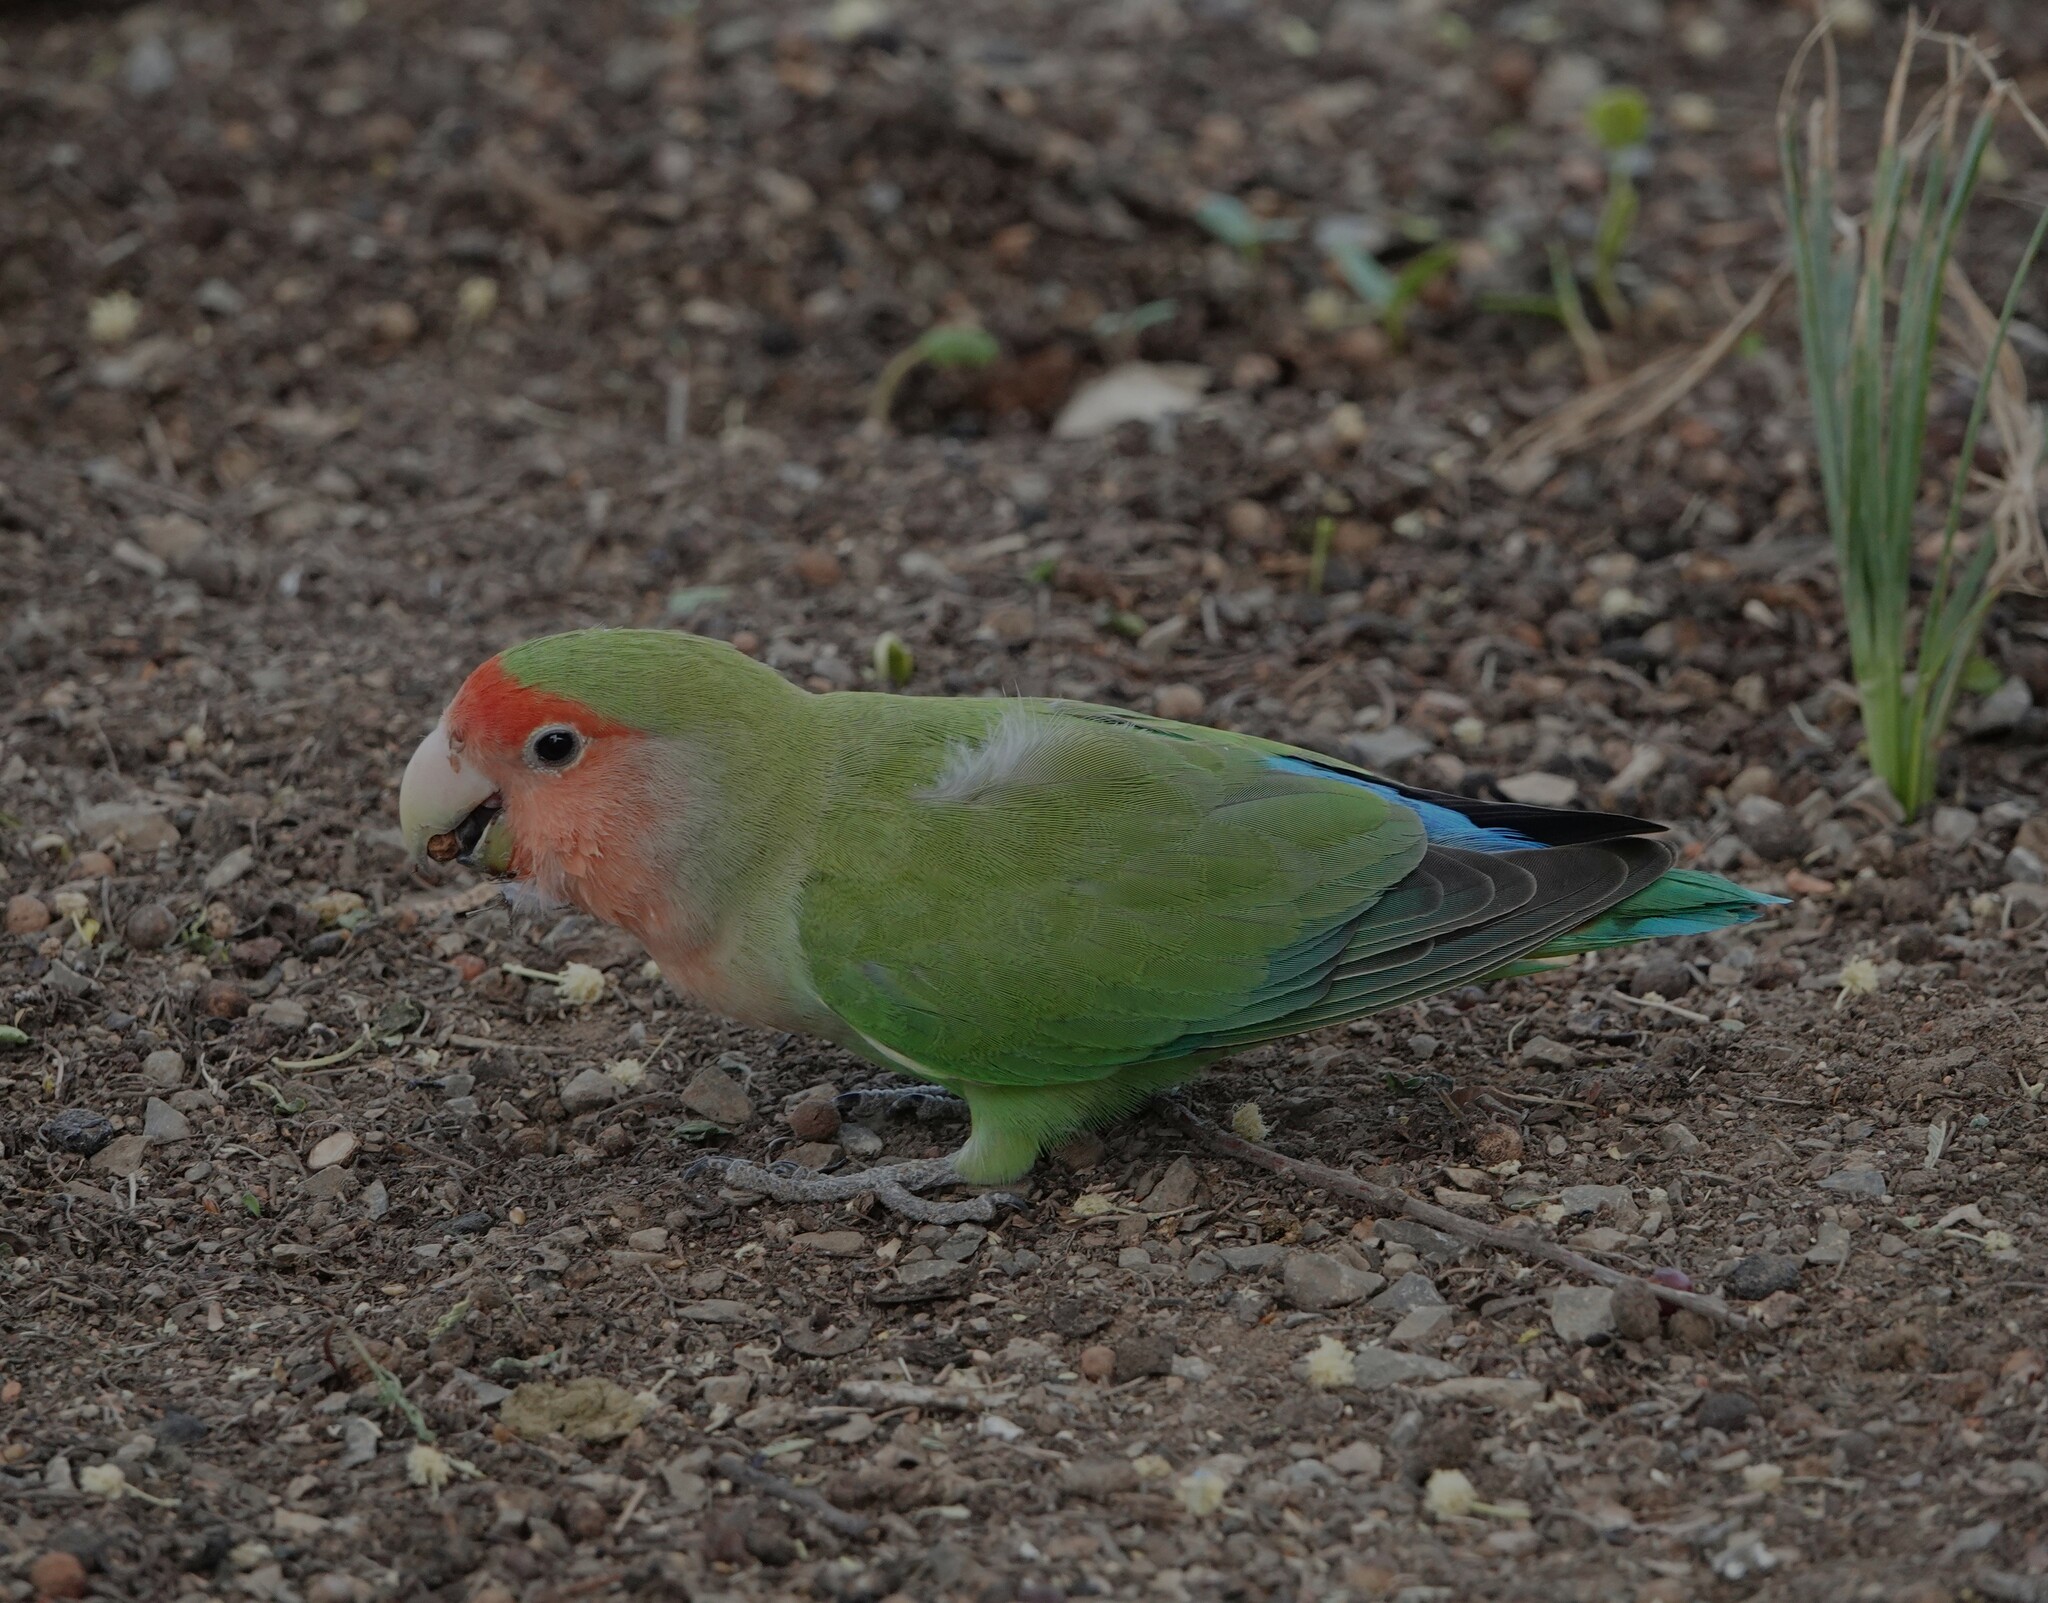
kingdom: Animalia
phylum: Chordata
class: Aves
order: Psittaciformes
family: Psittacidae
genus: Agapornis
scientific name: Agapornis roseicollis
